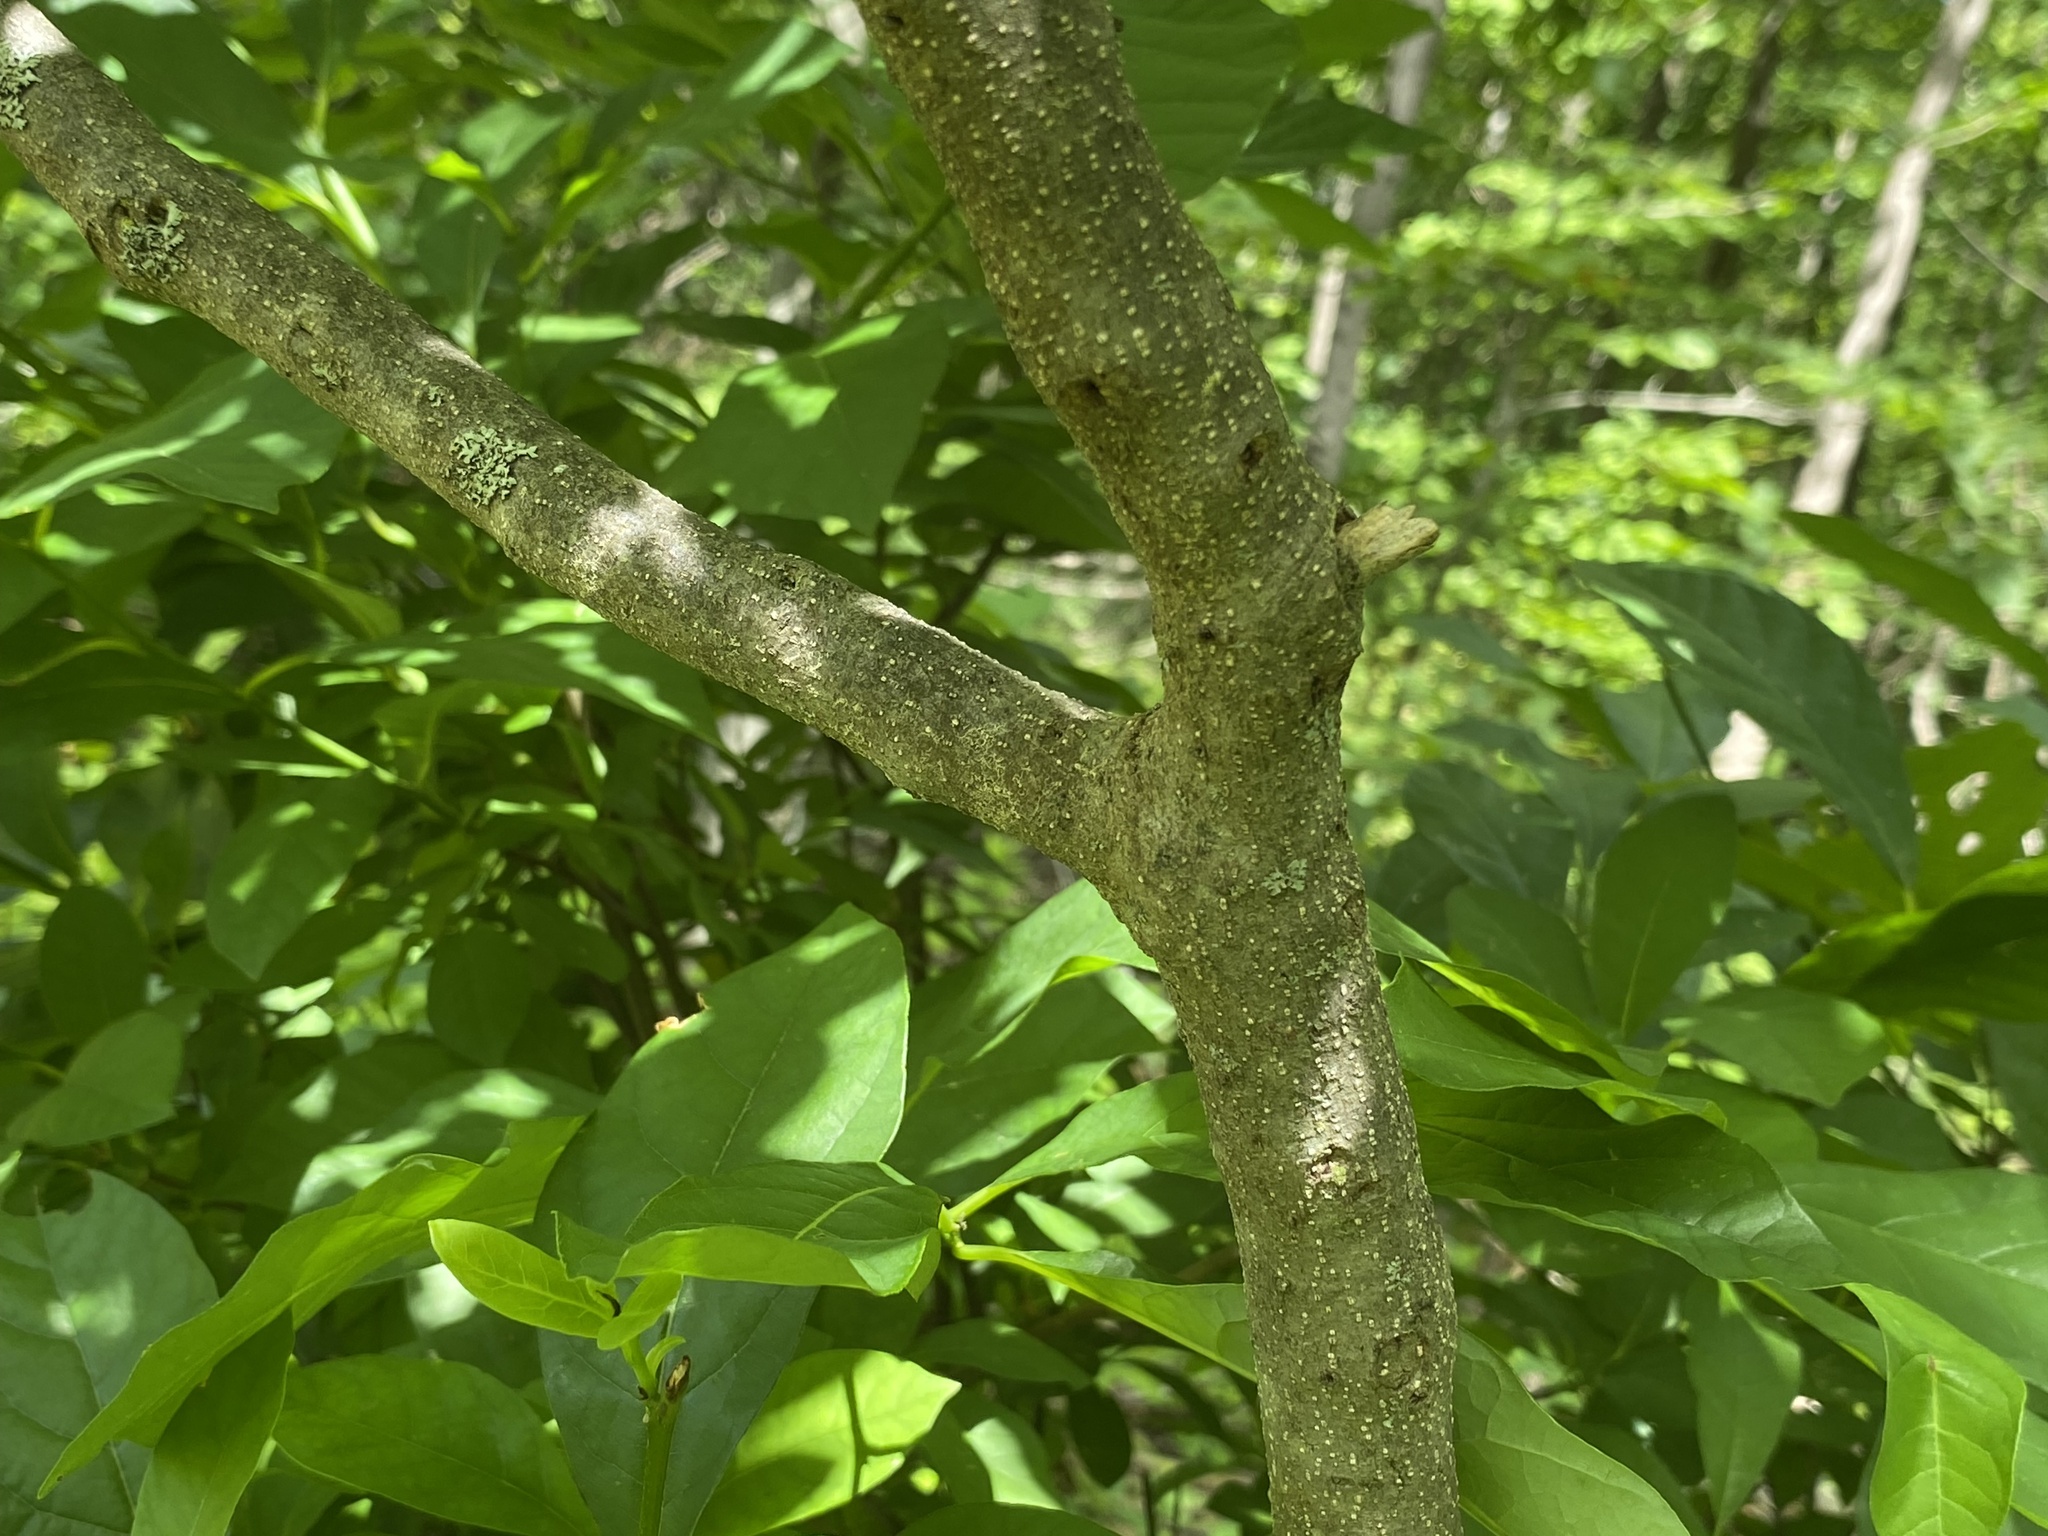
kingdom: Plantae
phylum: Tracheophyta
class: Magnoliopsida
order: Laurales
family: Lauraceae
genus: Lindera
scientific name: Lindera benzoin
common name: Spicebush
